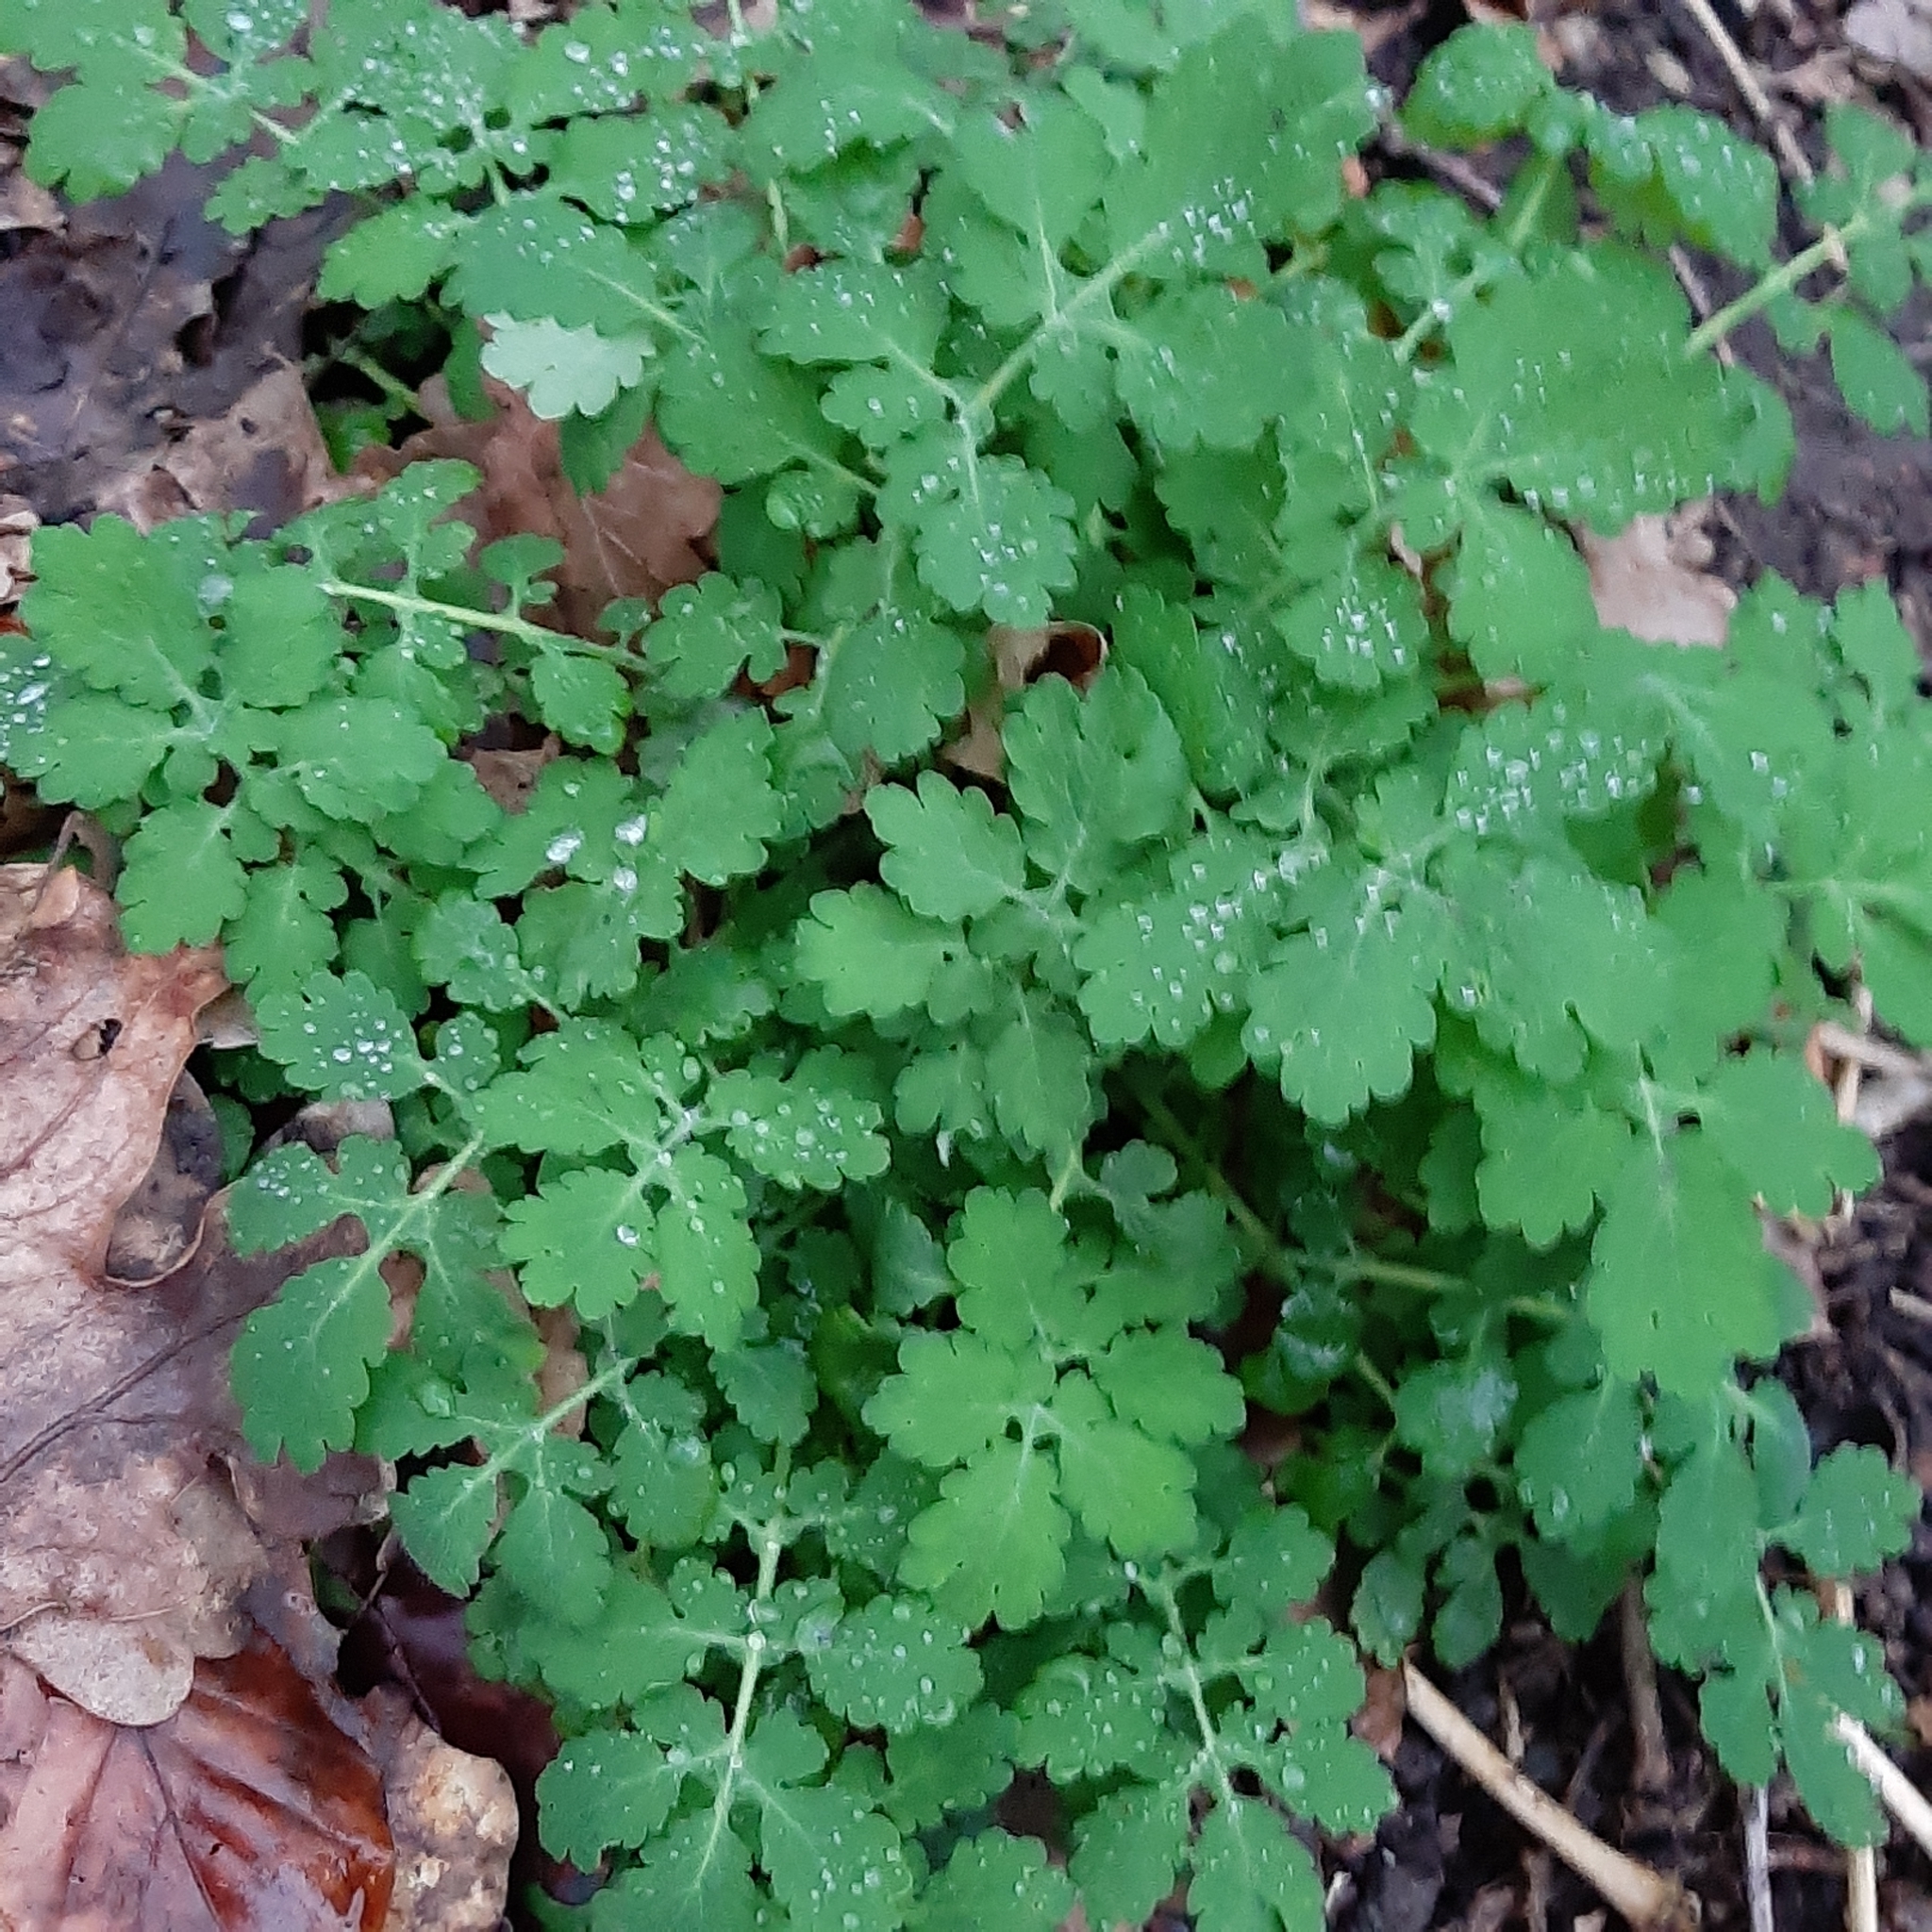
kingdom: Plantae
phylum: Tracheophyta
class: Magnoliopsida
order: Ranunculales
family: Papaveraceae
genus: Chelidonium
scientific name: Chelidonium majus
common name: Greater celandine
